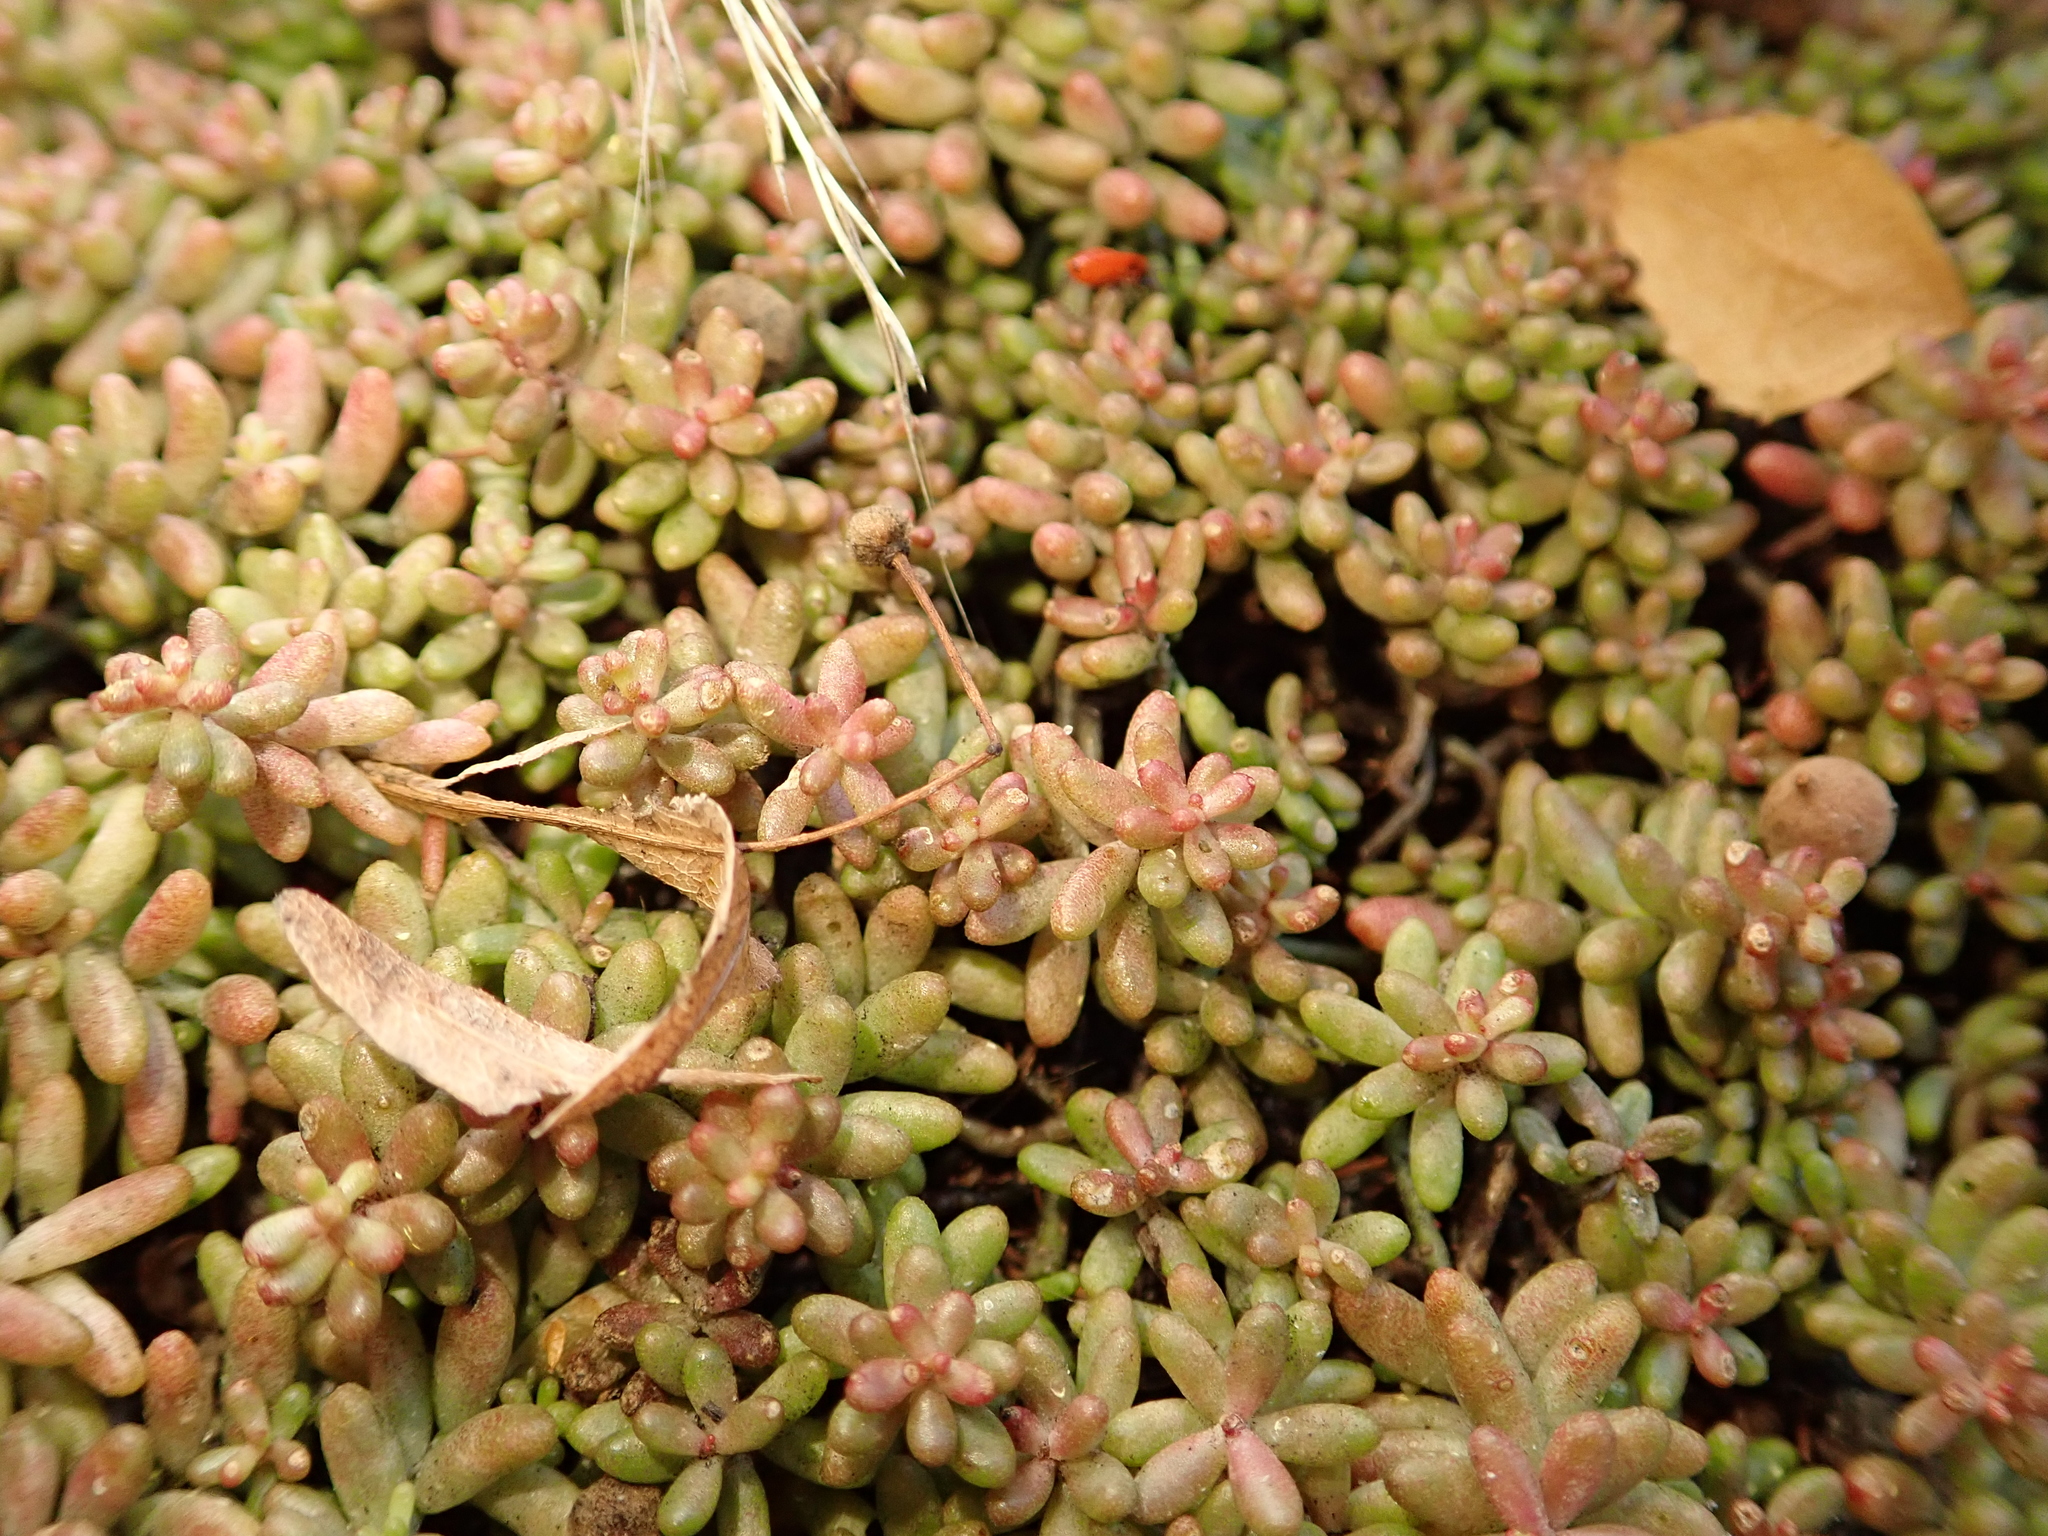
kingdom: Plantae
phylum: Tracheophyta
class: Magnoliopsida
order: Saxifragales
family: Crassulaceae
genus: Sedum
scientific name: Sedum album
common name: White stonecrop
